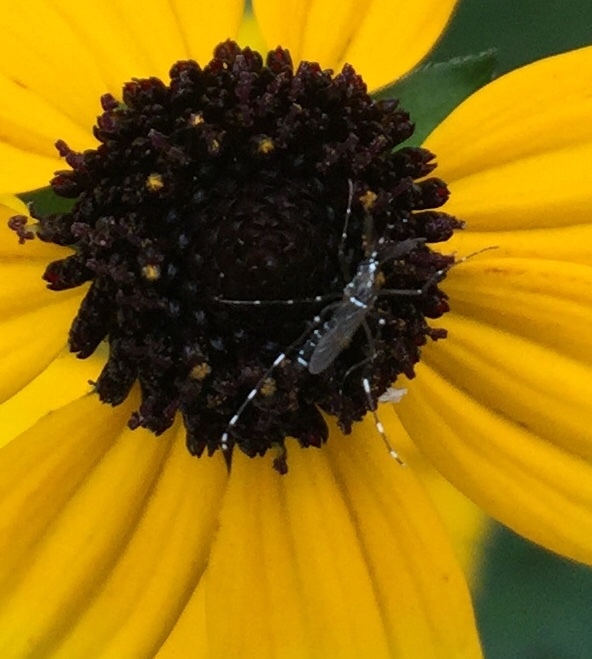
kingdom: Animalia
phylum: Arthropoda
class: Insecta
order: Diptera
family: Culicidae
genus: Aedes
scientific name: Aedes albopictus
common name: Tiger mosquito
